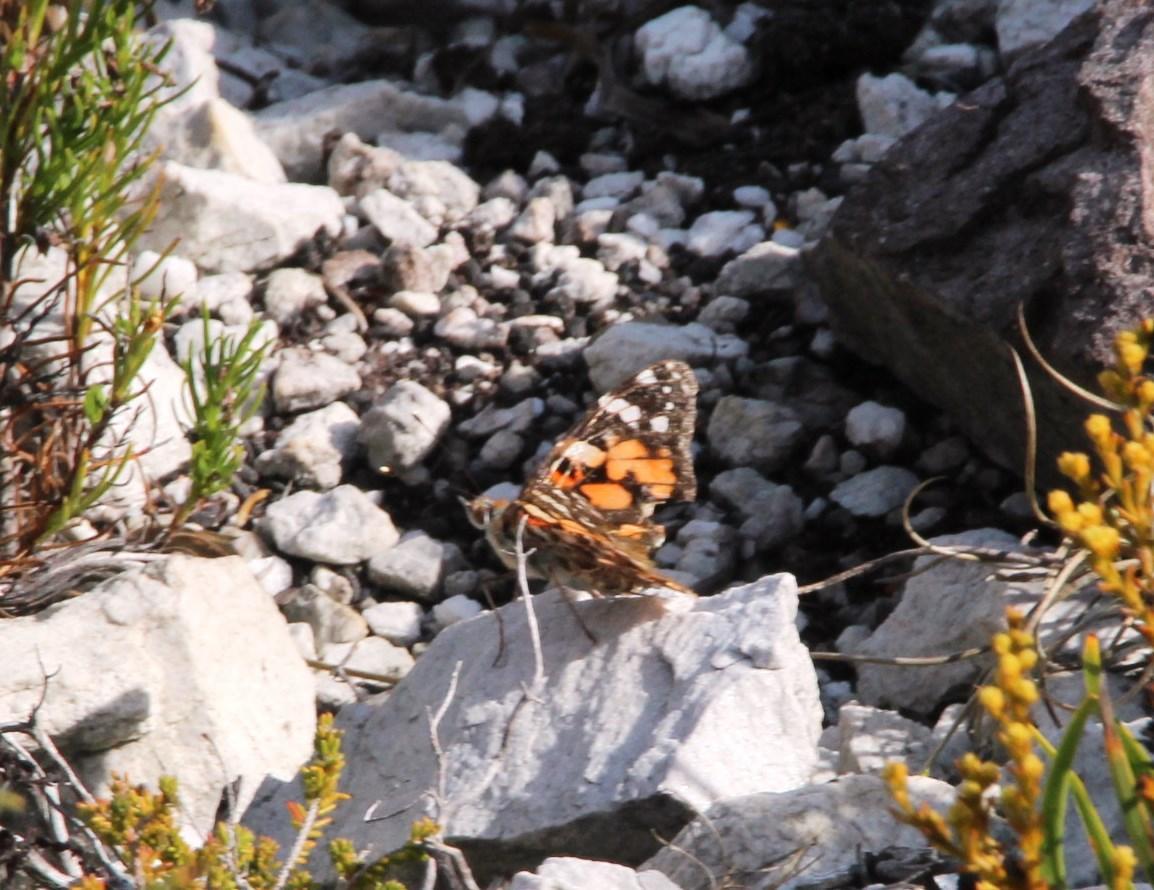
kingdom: Animalia
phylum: Arthropoda
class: Insecta
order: Lepidoptera
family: Nymphalidae
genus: Vanessa
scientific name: Vanessa cardui
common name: Painted lady
